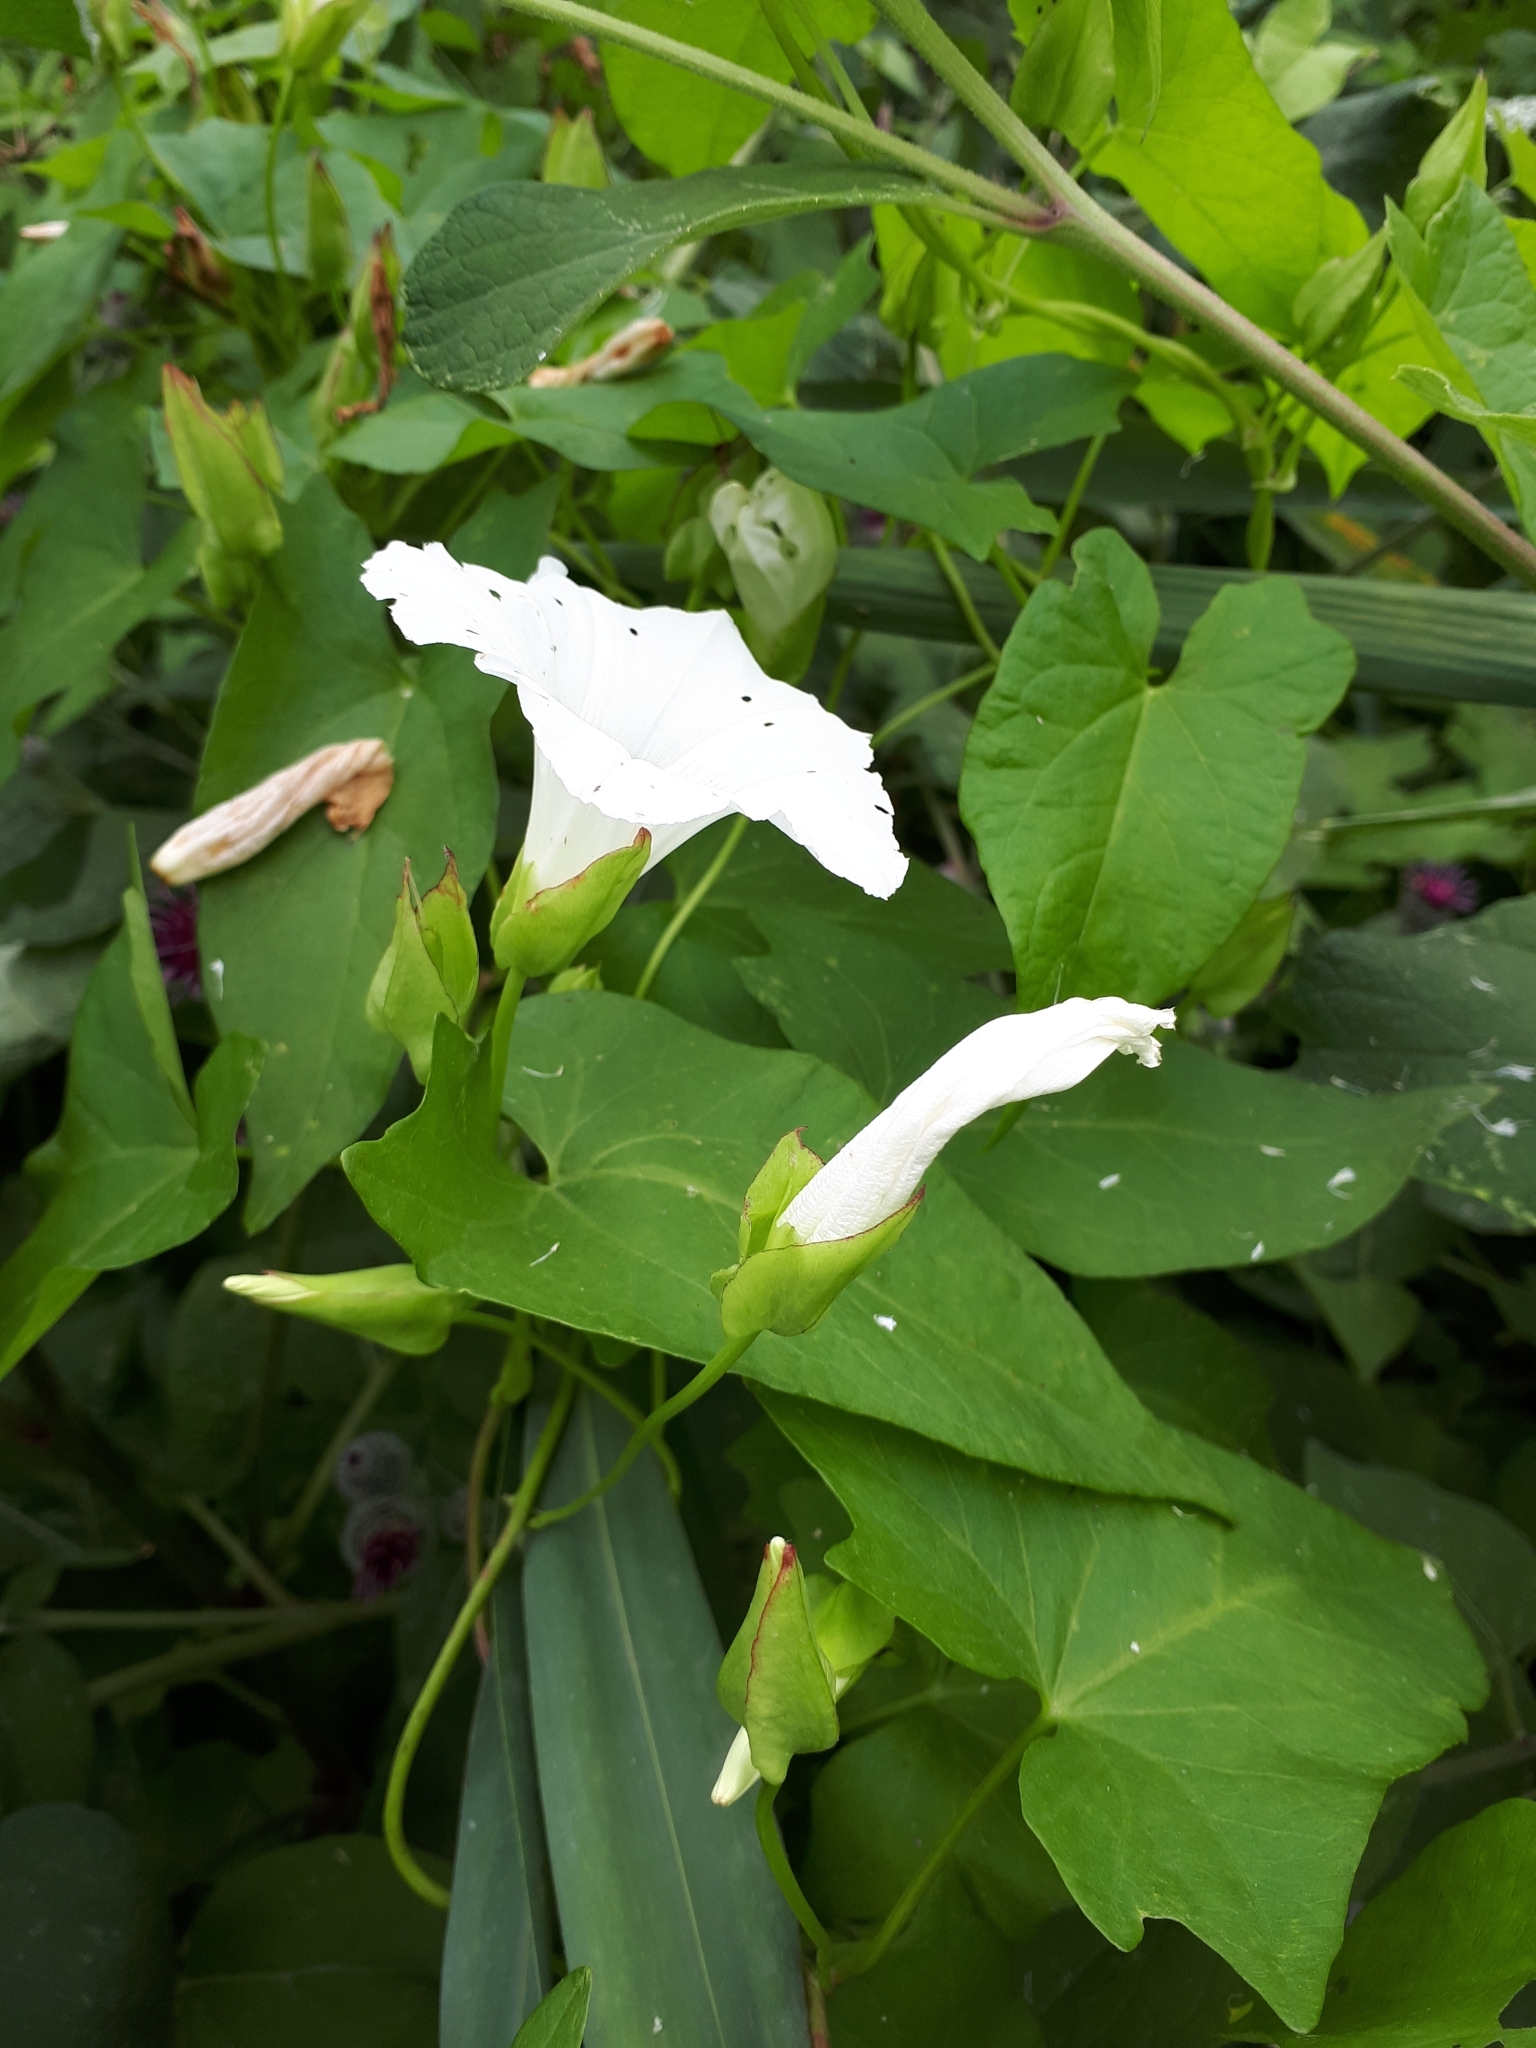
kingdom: Plantae
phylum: Tracheophyta
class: Magnoliopsida
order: Solanales
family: Convolvulaceae
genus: Calystegia
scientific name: Calystegia sepium
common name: Hedge bindweed
